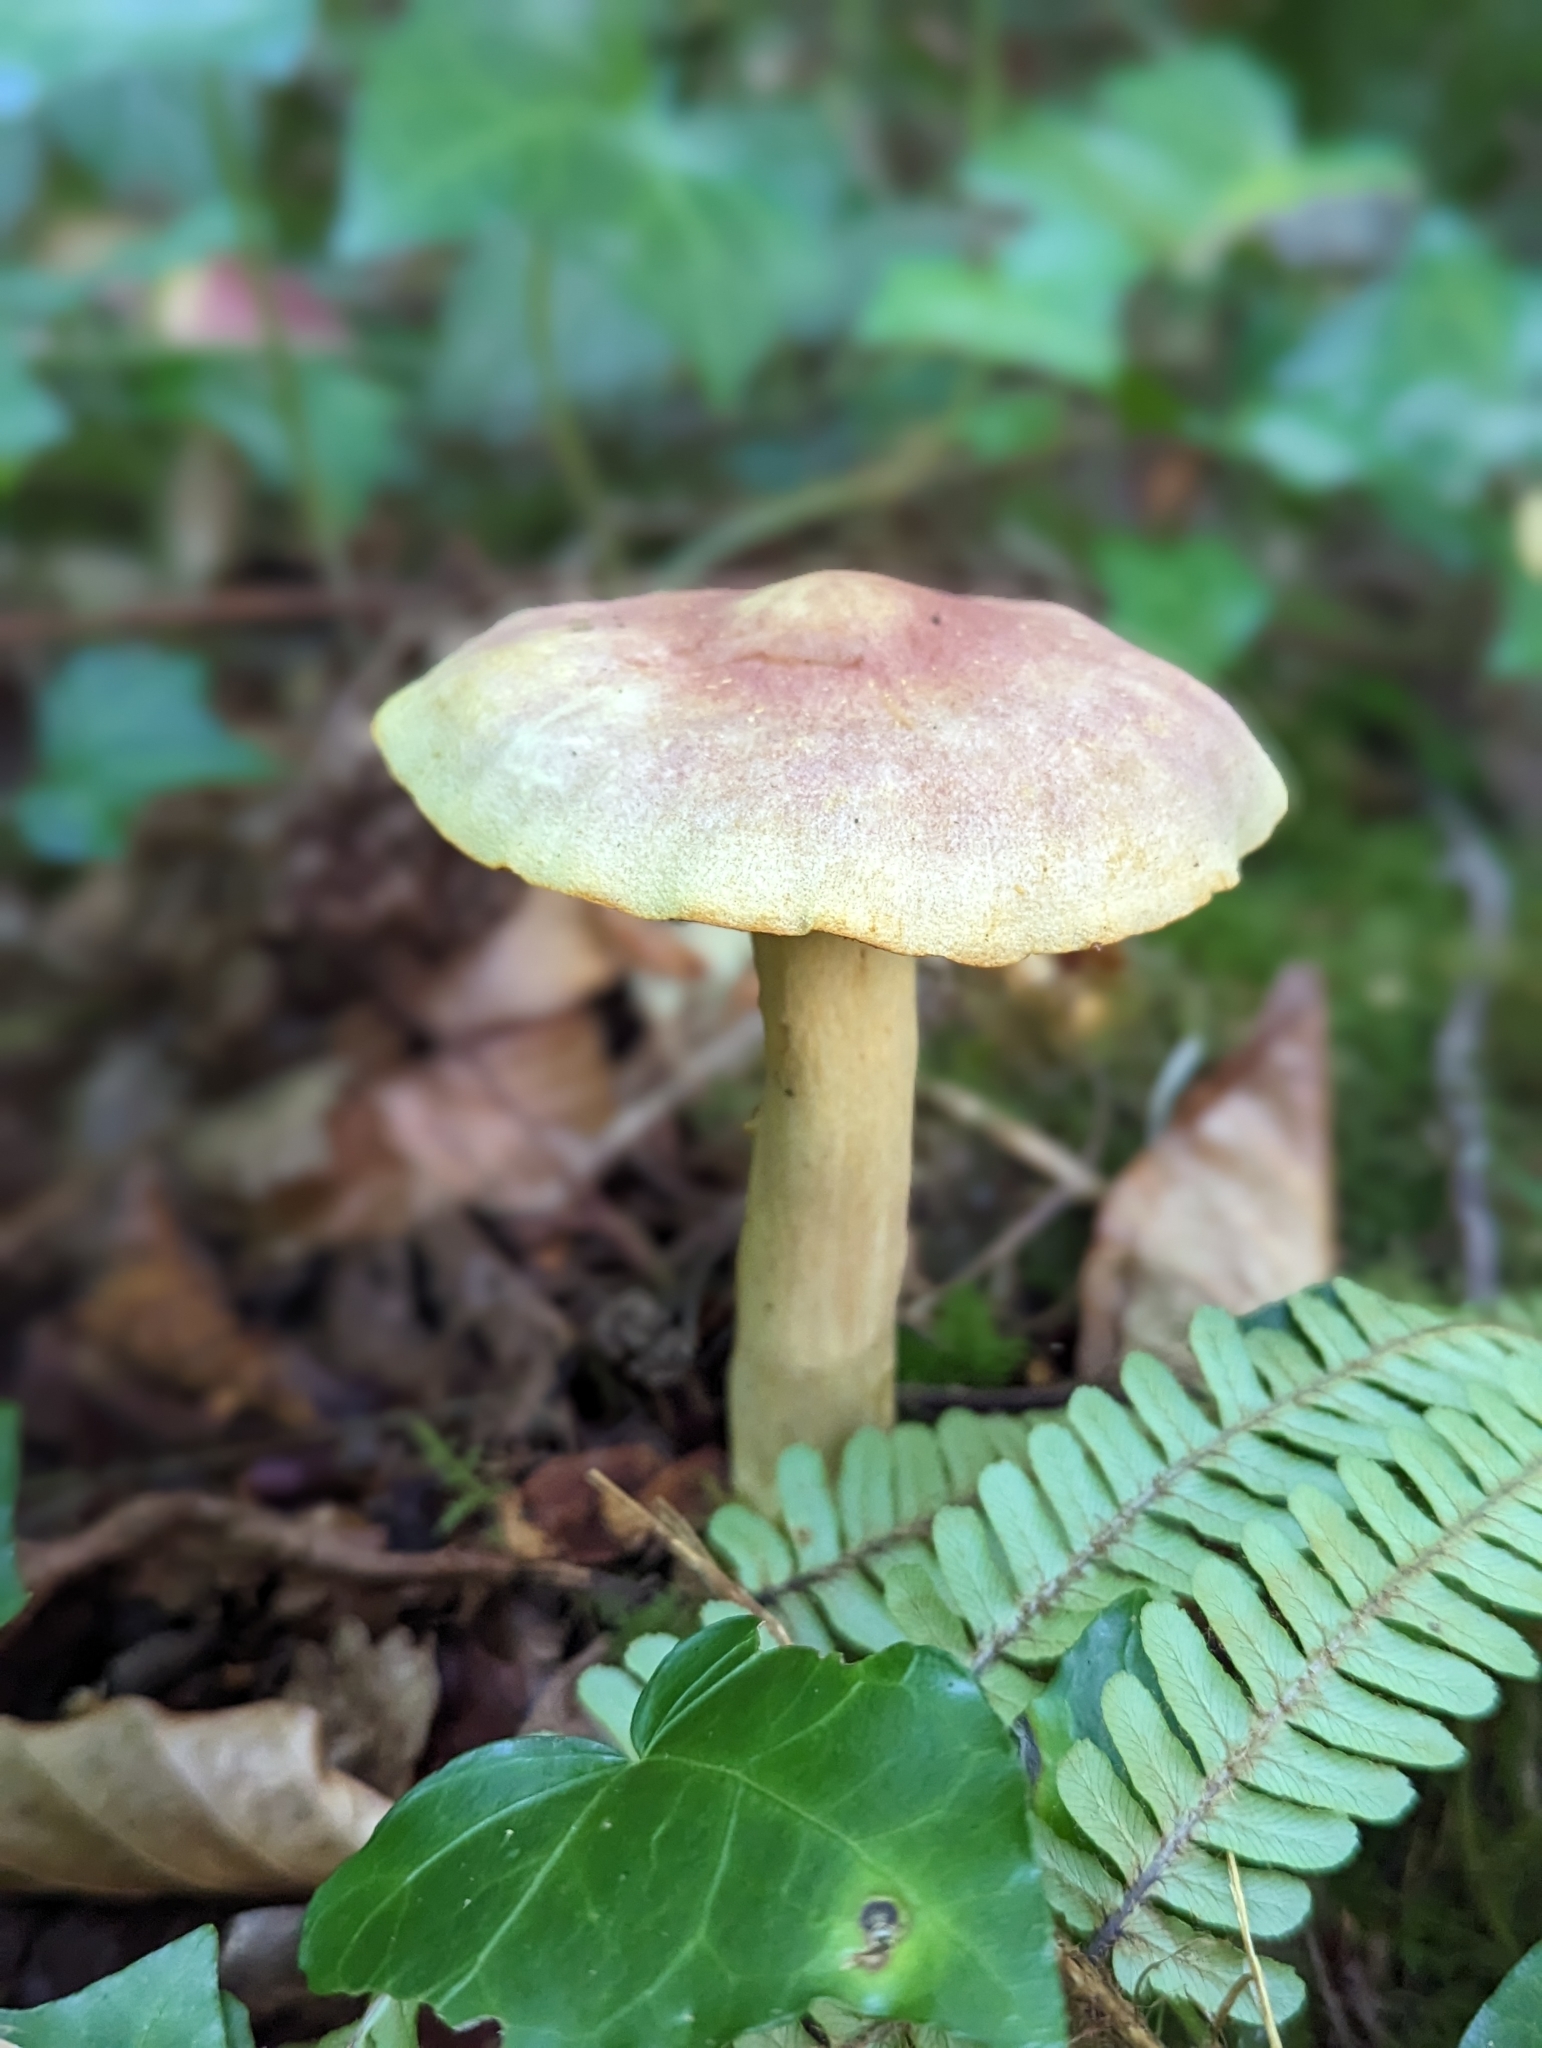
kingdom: Fungi
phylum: Basidiomycota
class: Agaricomycetes
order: Agaricales
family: Tricholomataceae
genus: Tricholomopsis
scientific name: Tricholomopsis rutilans
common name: Plums and custard
